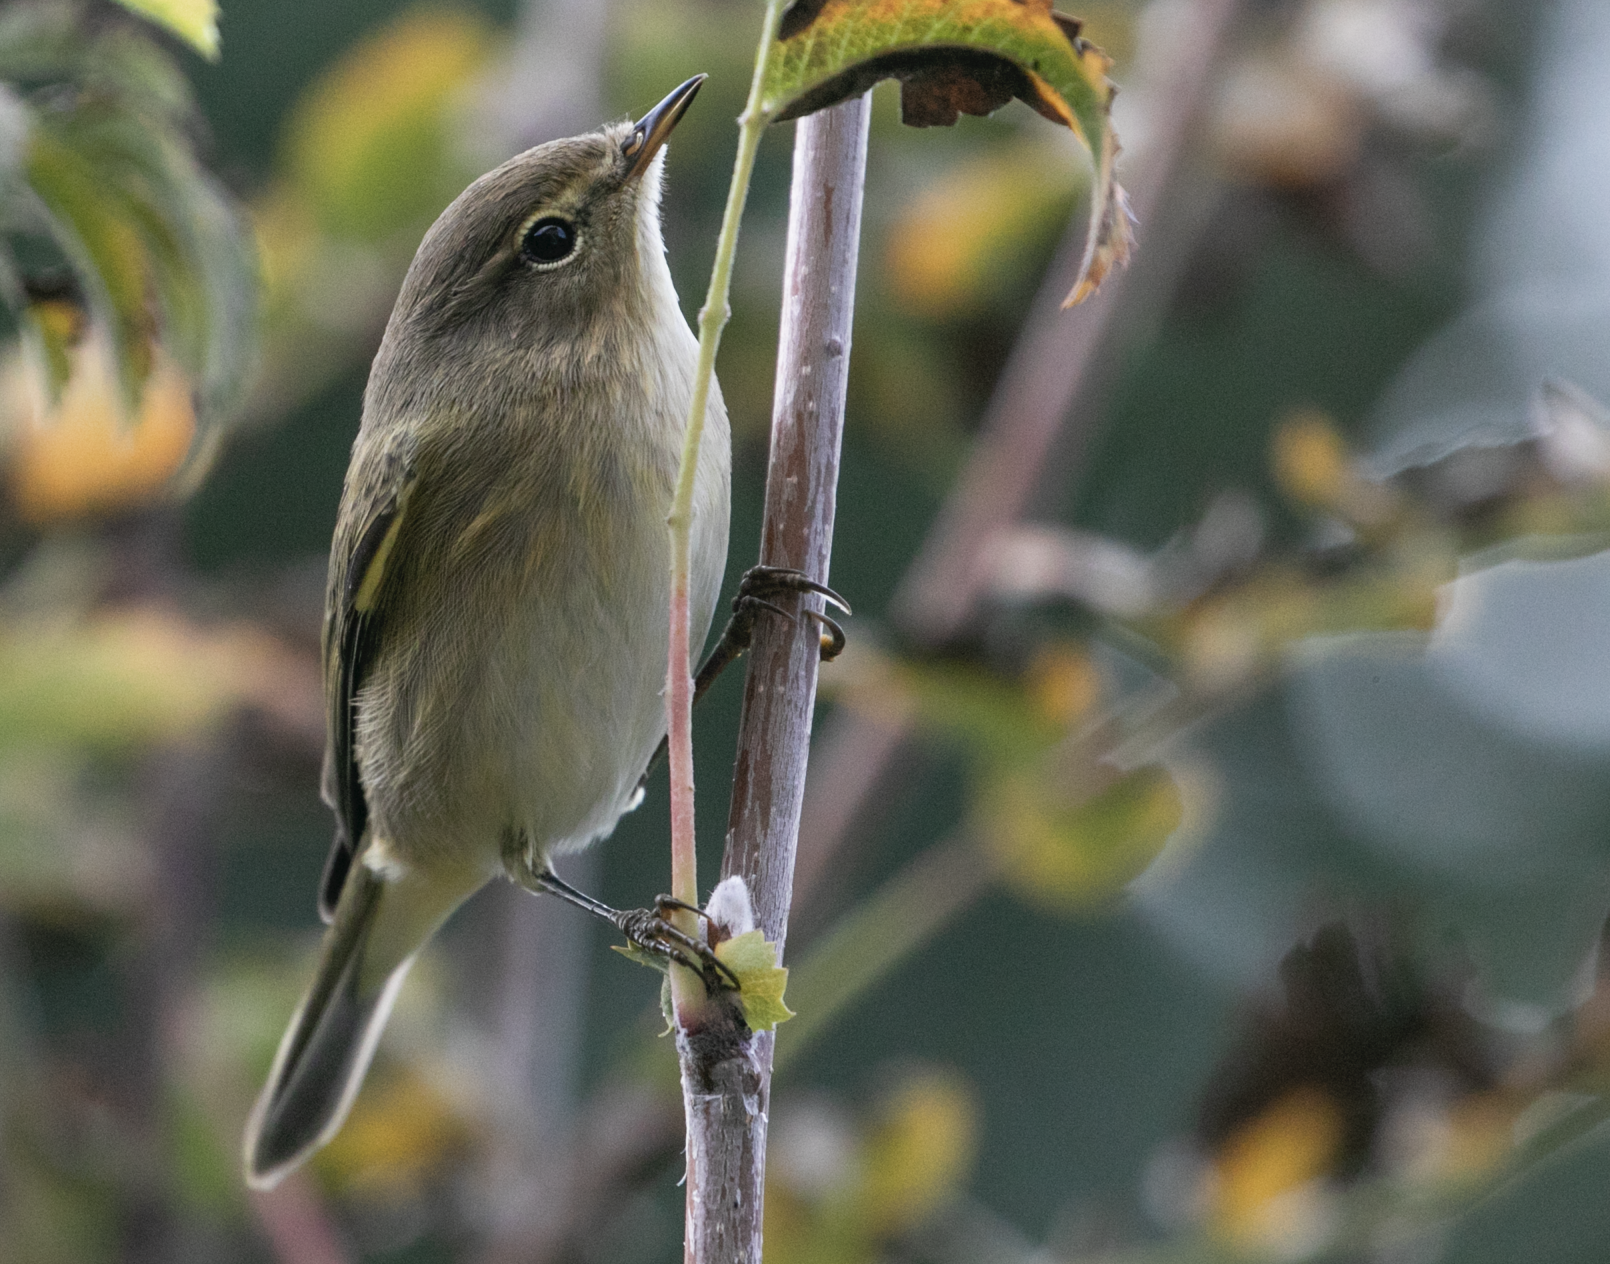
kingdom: Animalia
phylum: Chordata
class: Aves
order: Passeriformes
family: Phylloscopidae
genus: Phylloscopus
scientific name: Phylloscopus collybita
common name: Common chiffchaff
